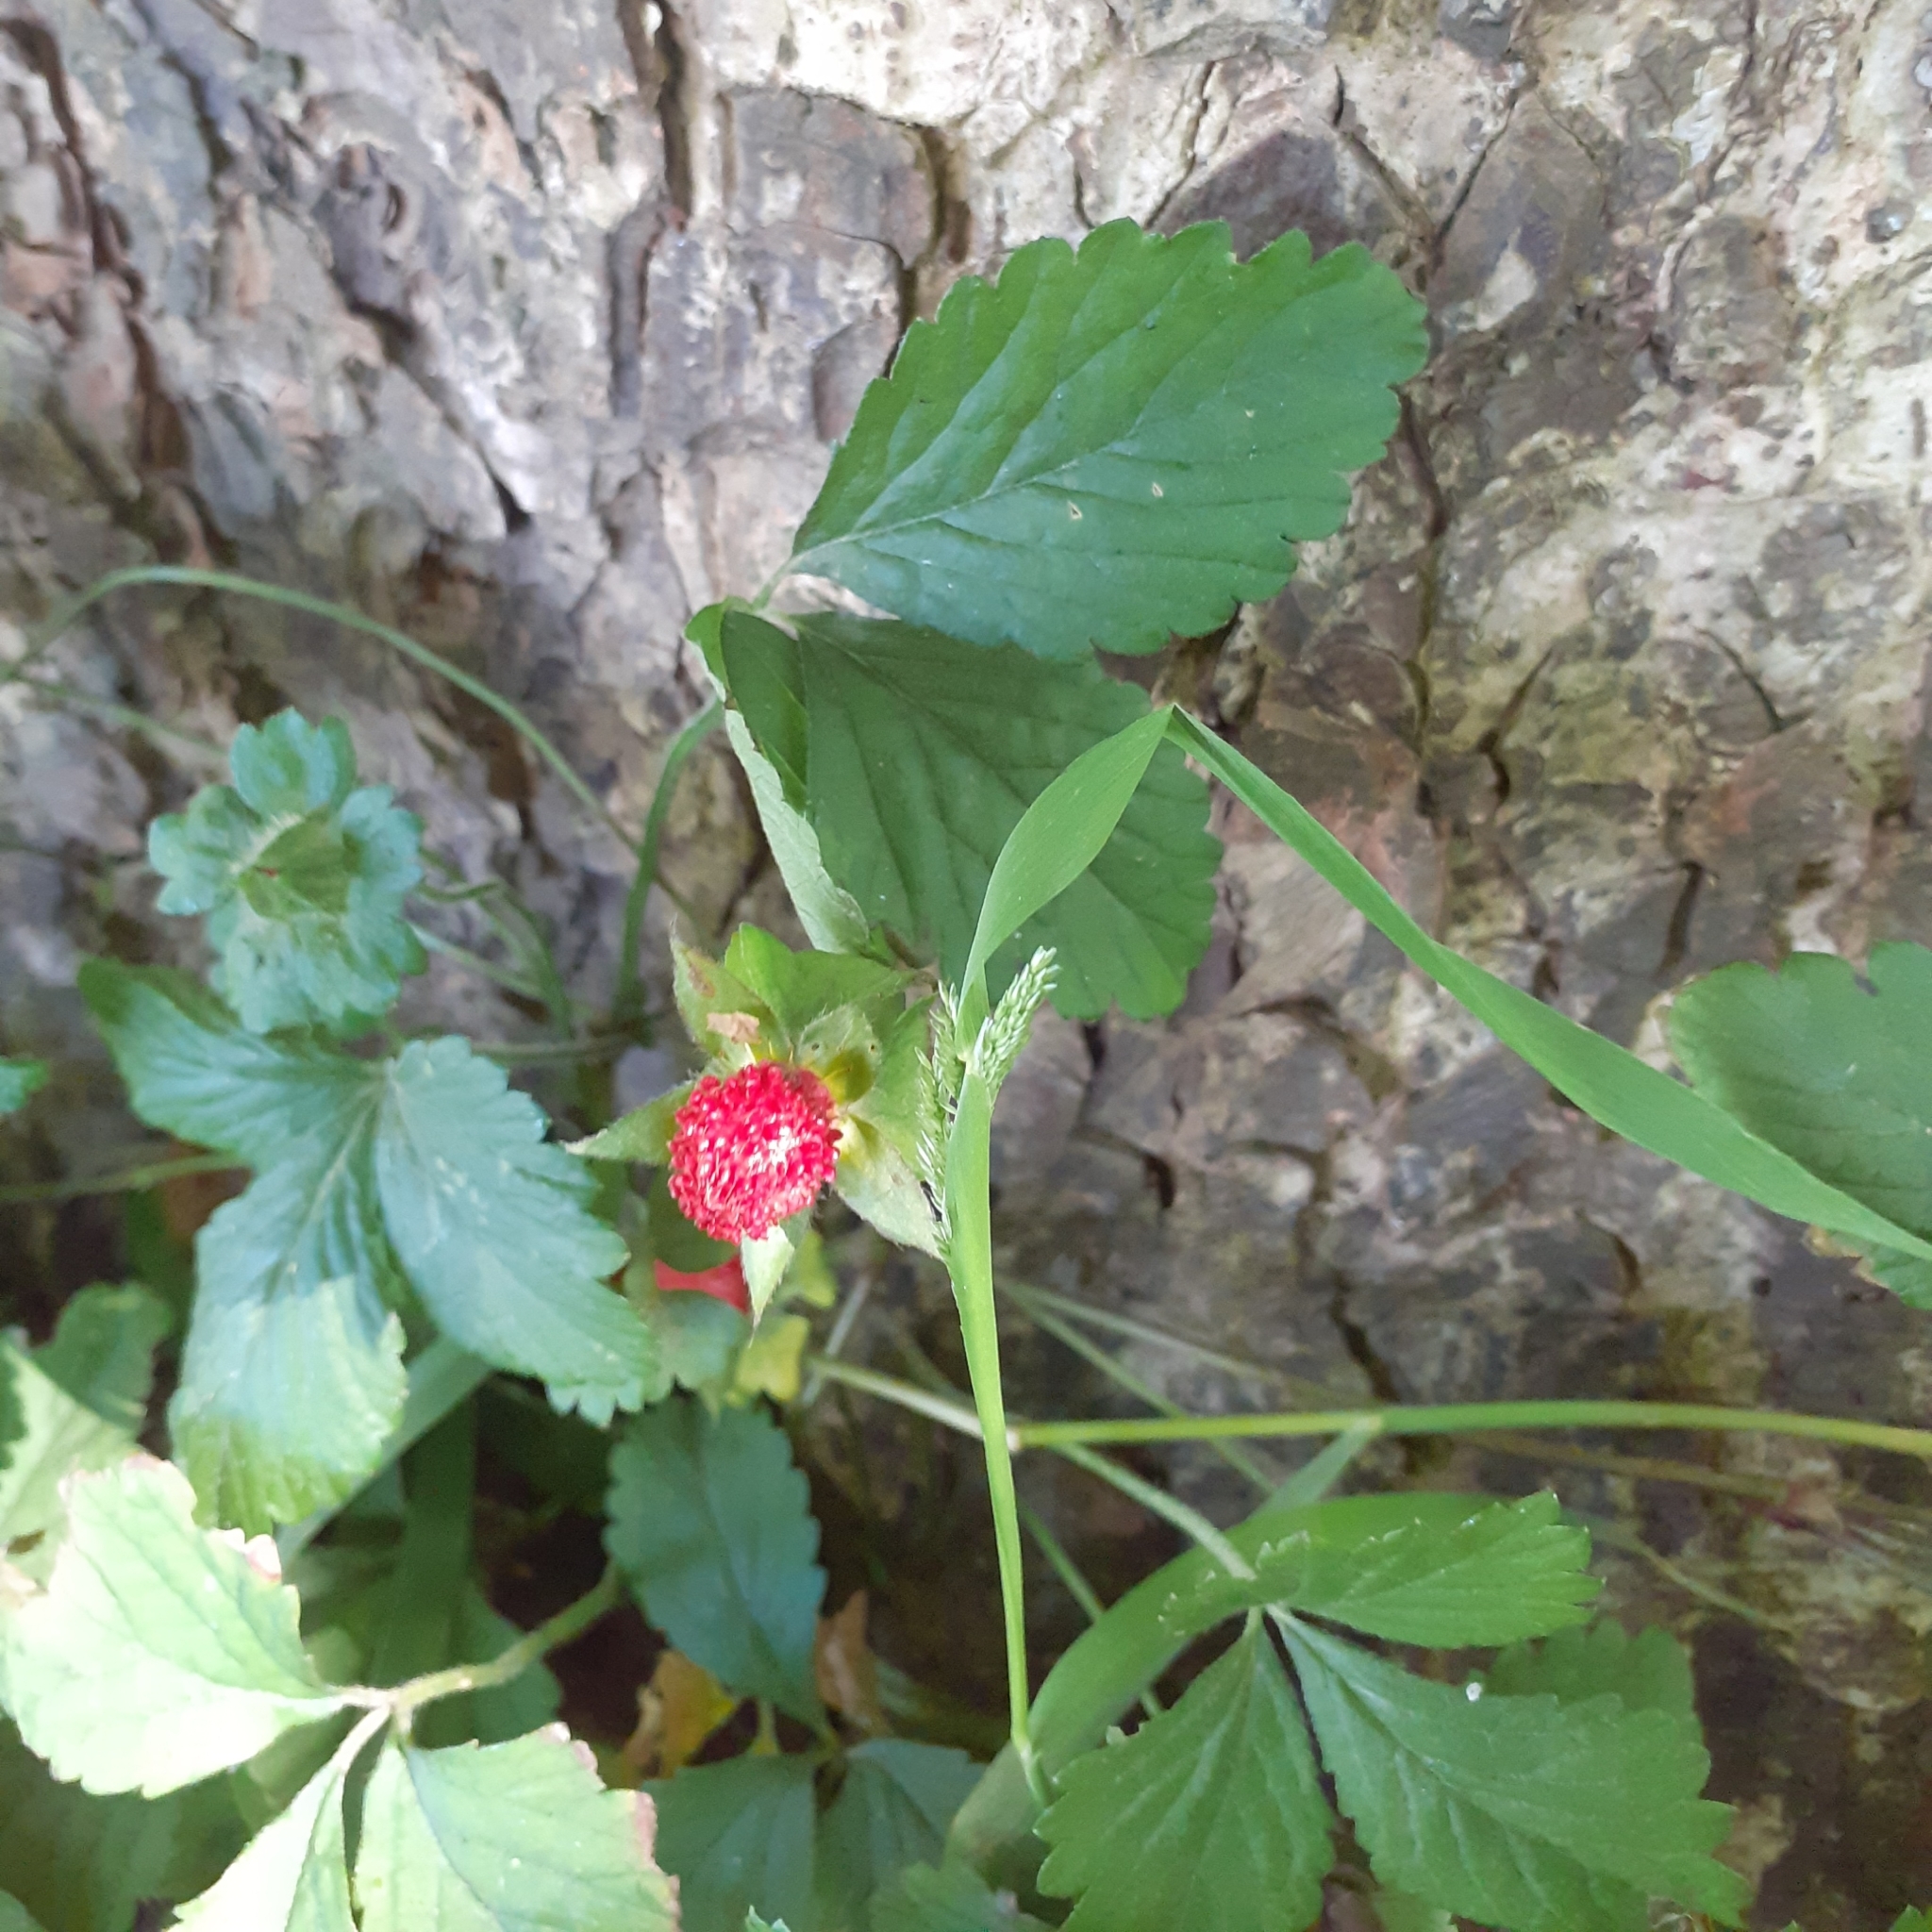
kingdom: Plantae
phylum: Tracheophyta
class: Magnoliopsida
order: Rosales
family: Rosaceae
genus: Potentilla
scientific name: Potentilla indica
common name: Yellow-flowered strawberry
